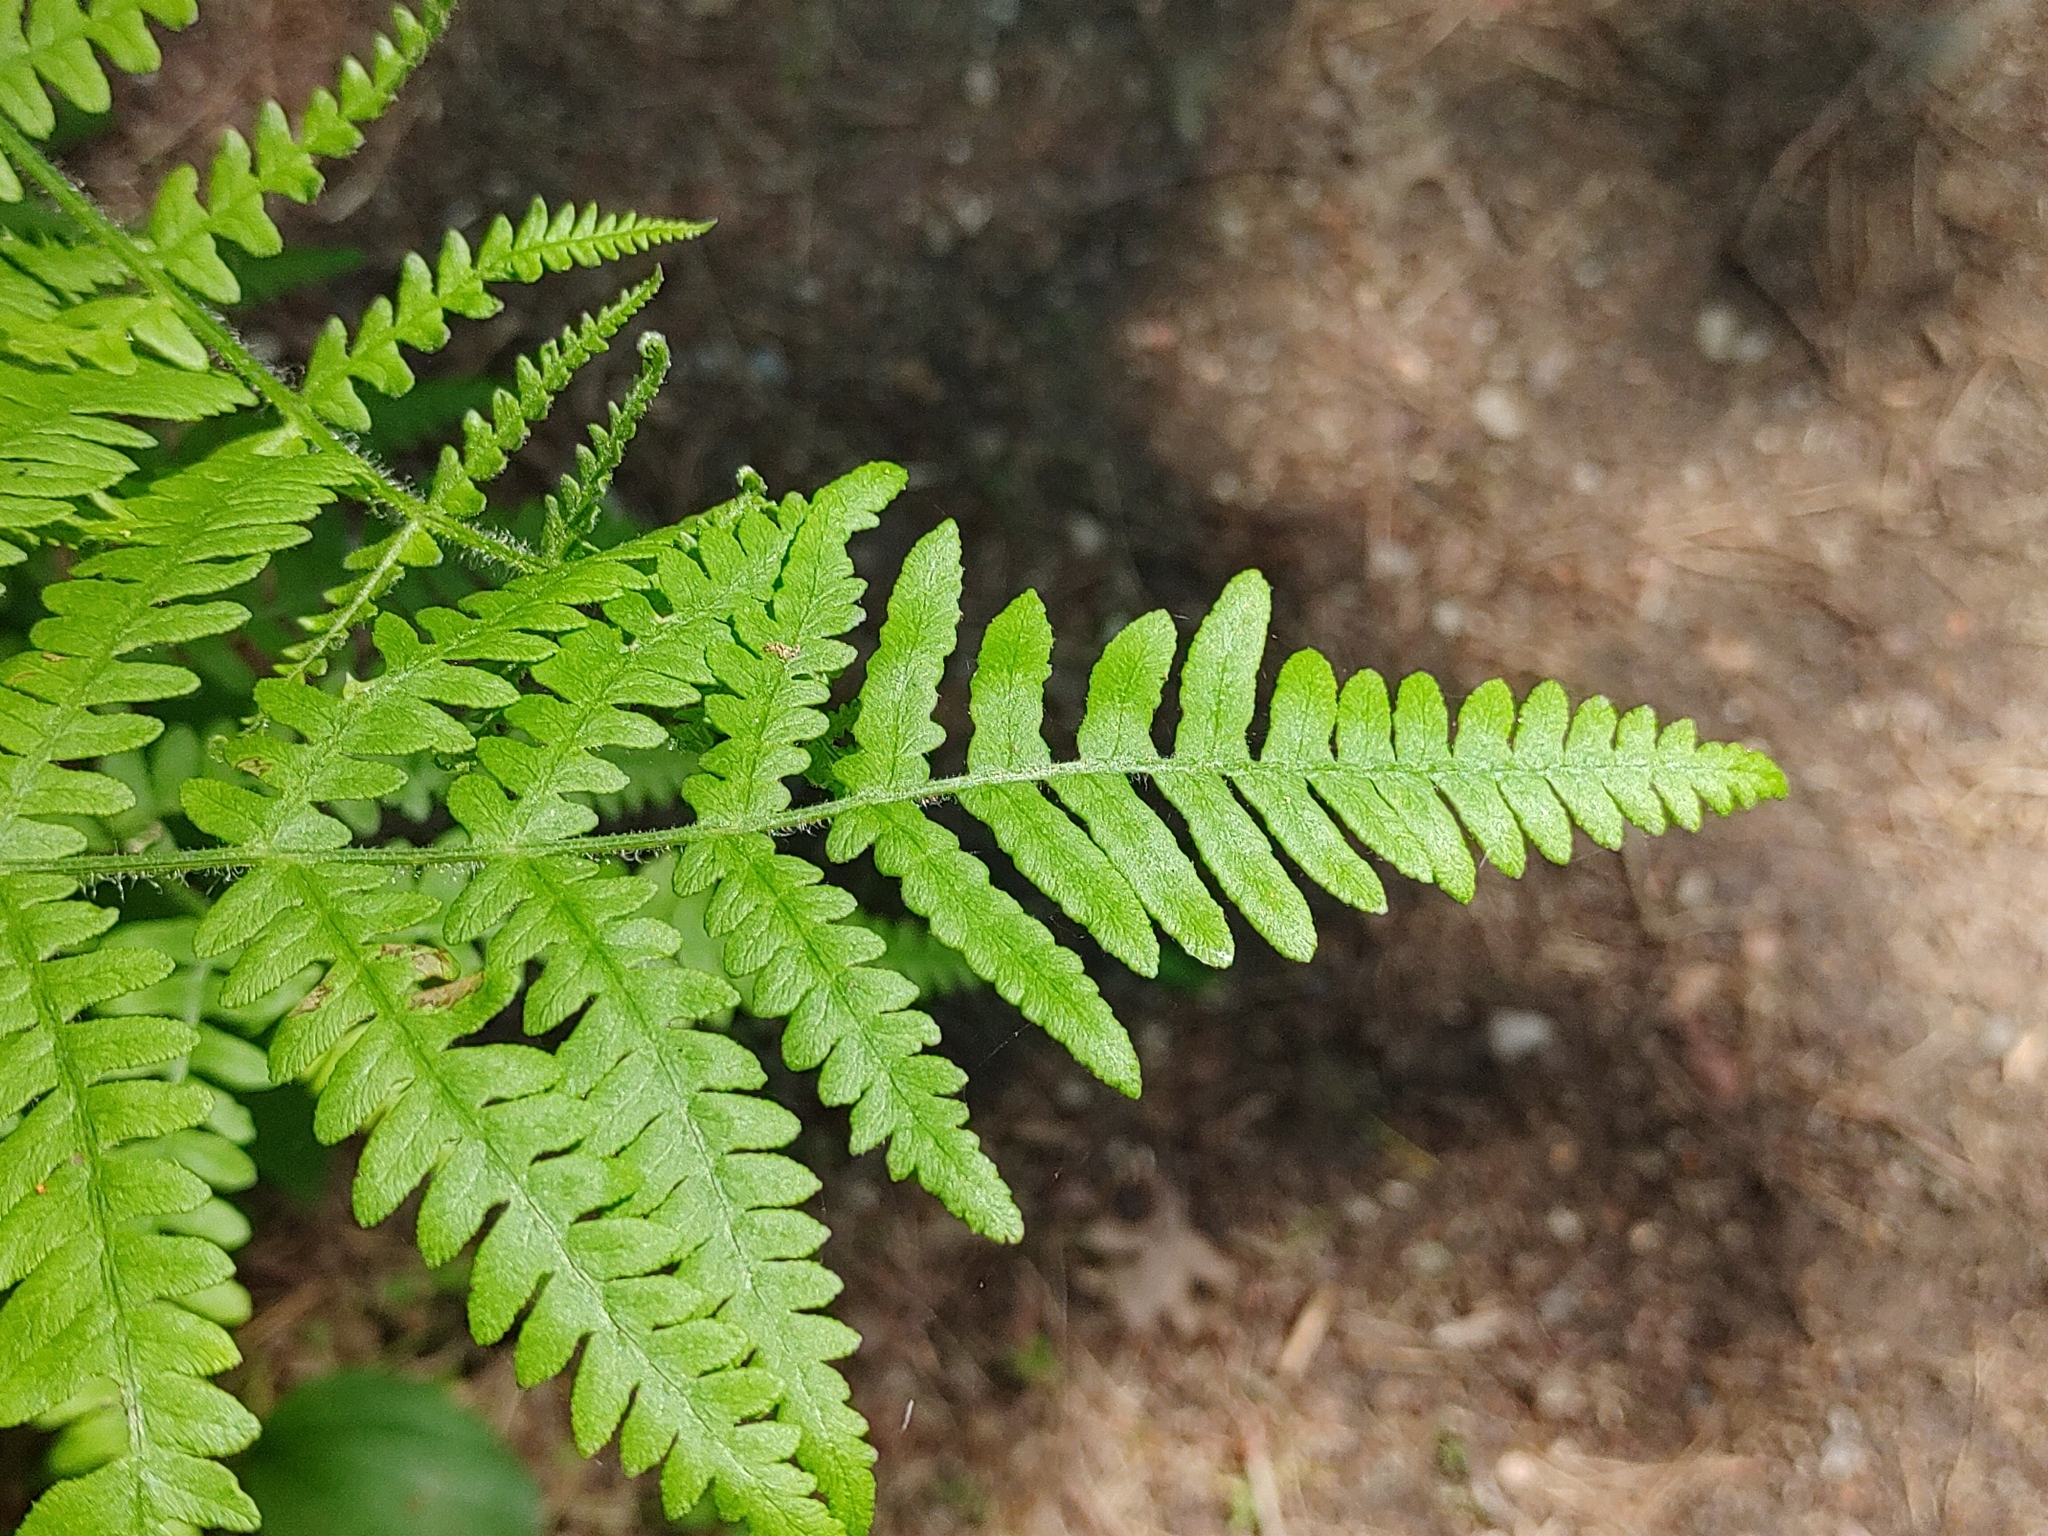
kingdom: Plantae
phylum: Tracheophyta
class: Polypodiopsida
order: Polypodiales
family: Dennstaedtiaceae
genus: Pteridium
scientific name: Pteridium aquilinum
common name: Bracken
